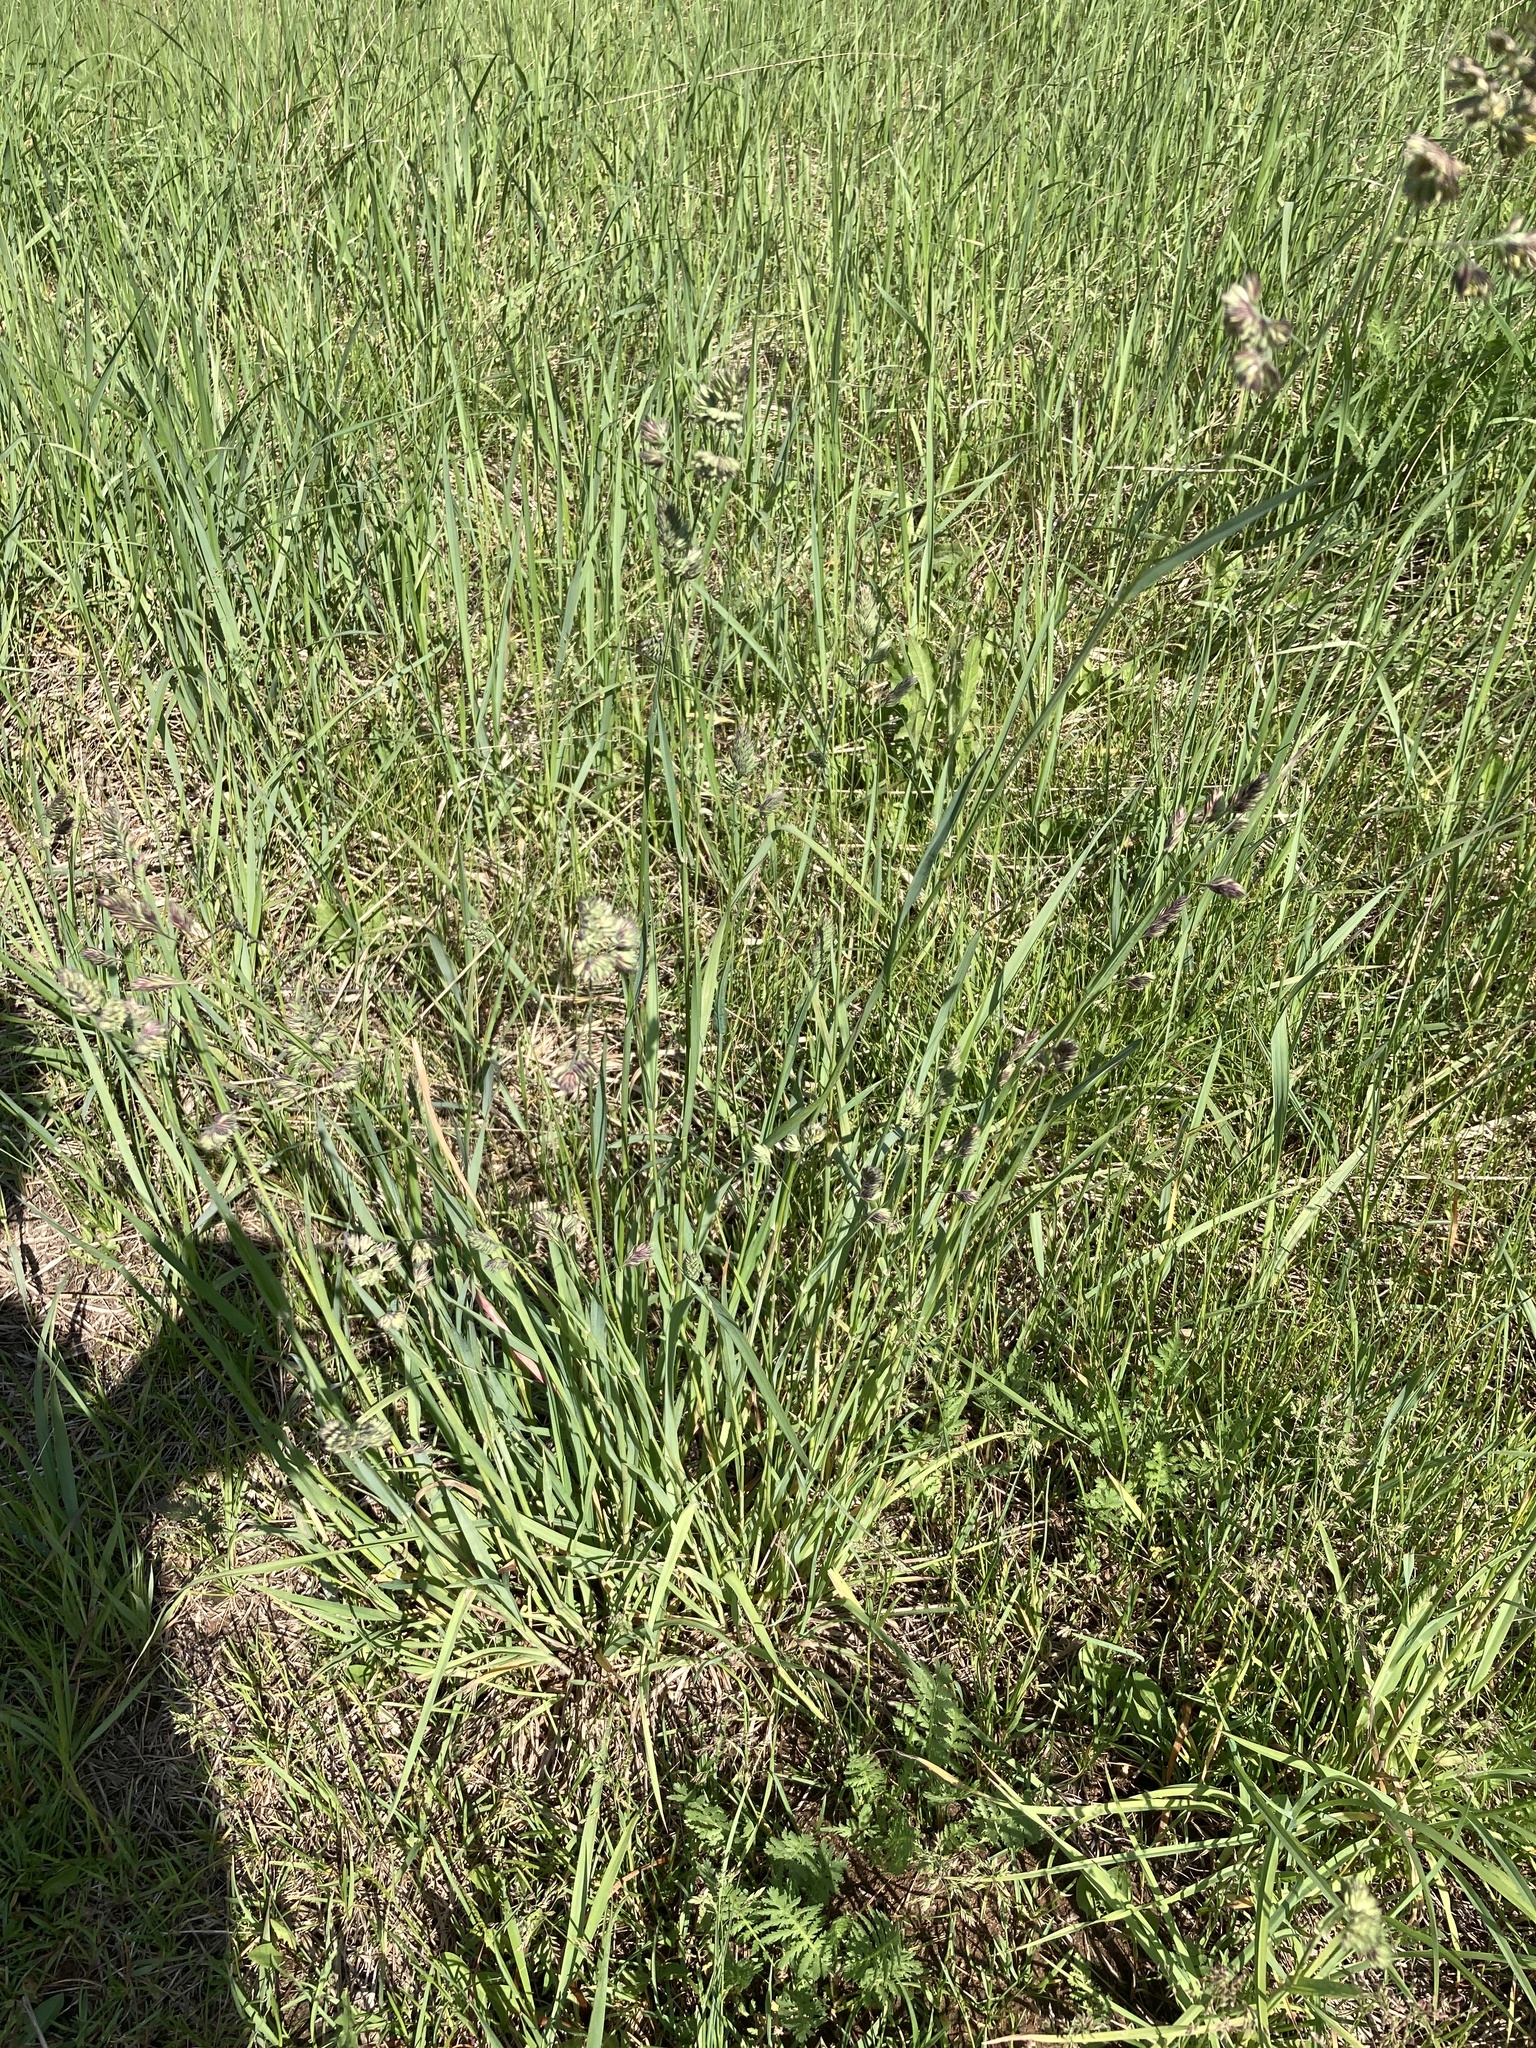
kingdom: Plantae
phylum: Tracheophyta
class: Liliopsida
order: Poales
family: Poaceae
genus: Dactylis
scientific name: Dactylis glomerata
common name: Orchardgrass
